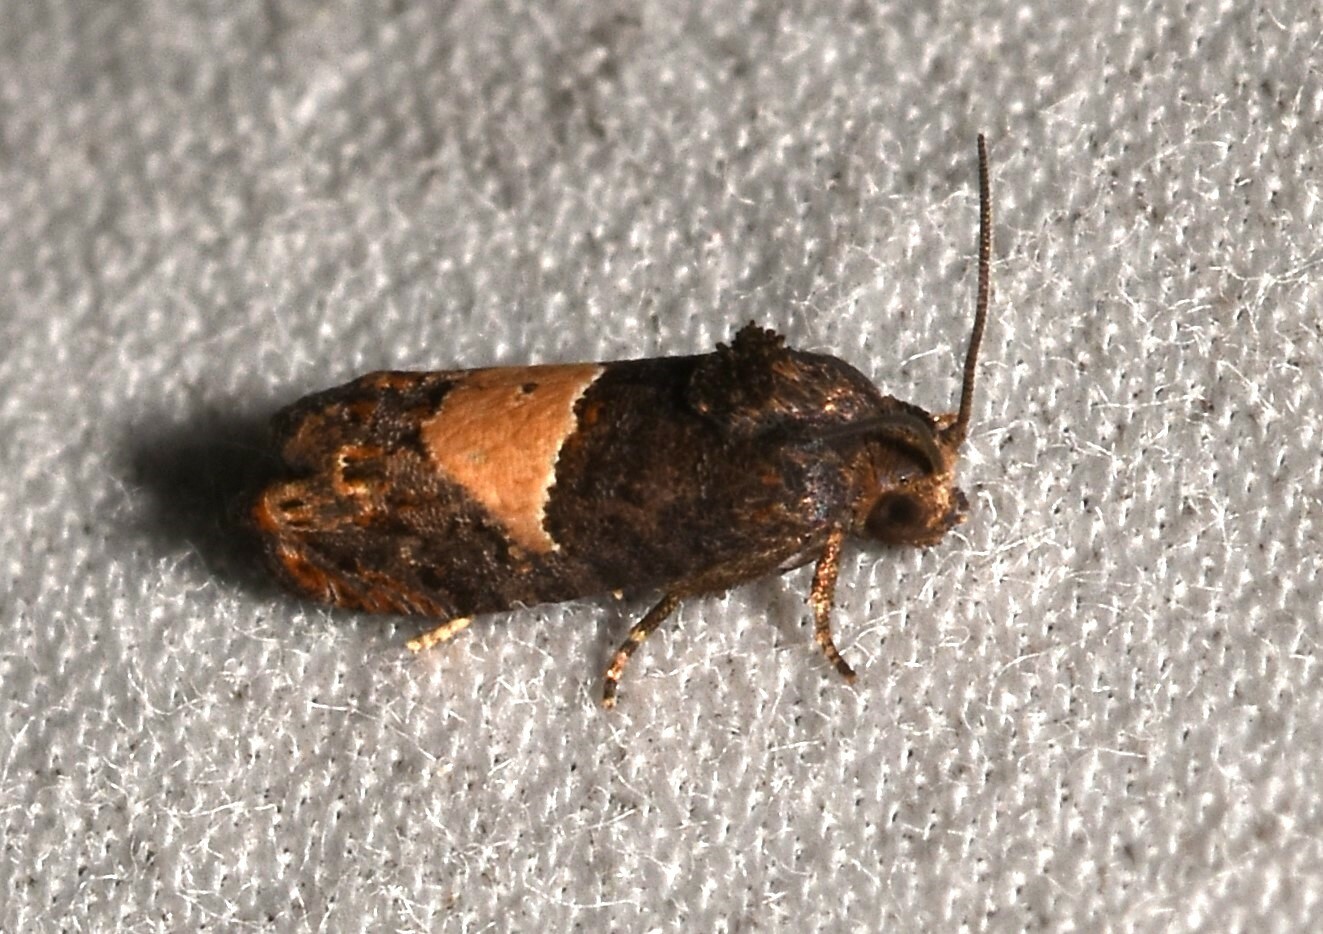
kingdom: Animalia
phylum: Arthropoda
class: Insecta
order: Lepidoptera
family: Tortricidae
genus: Epiblema
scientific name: Epiblema glenni
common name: Glenn's epiblema
